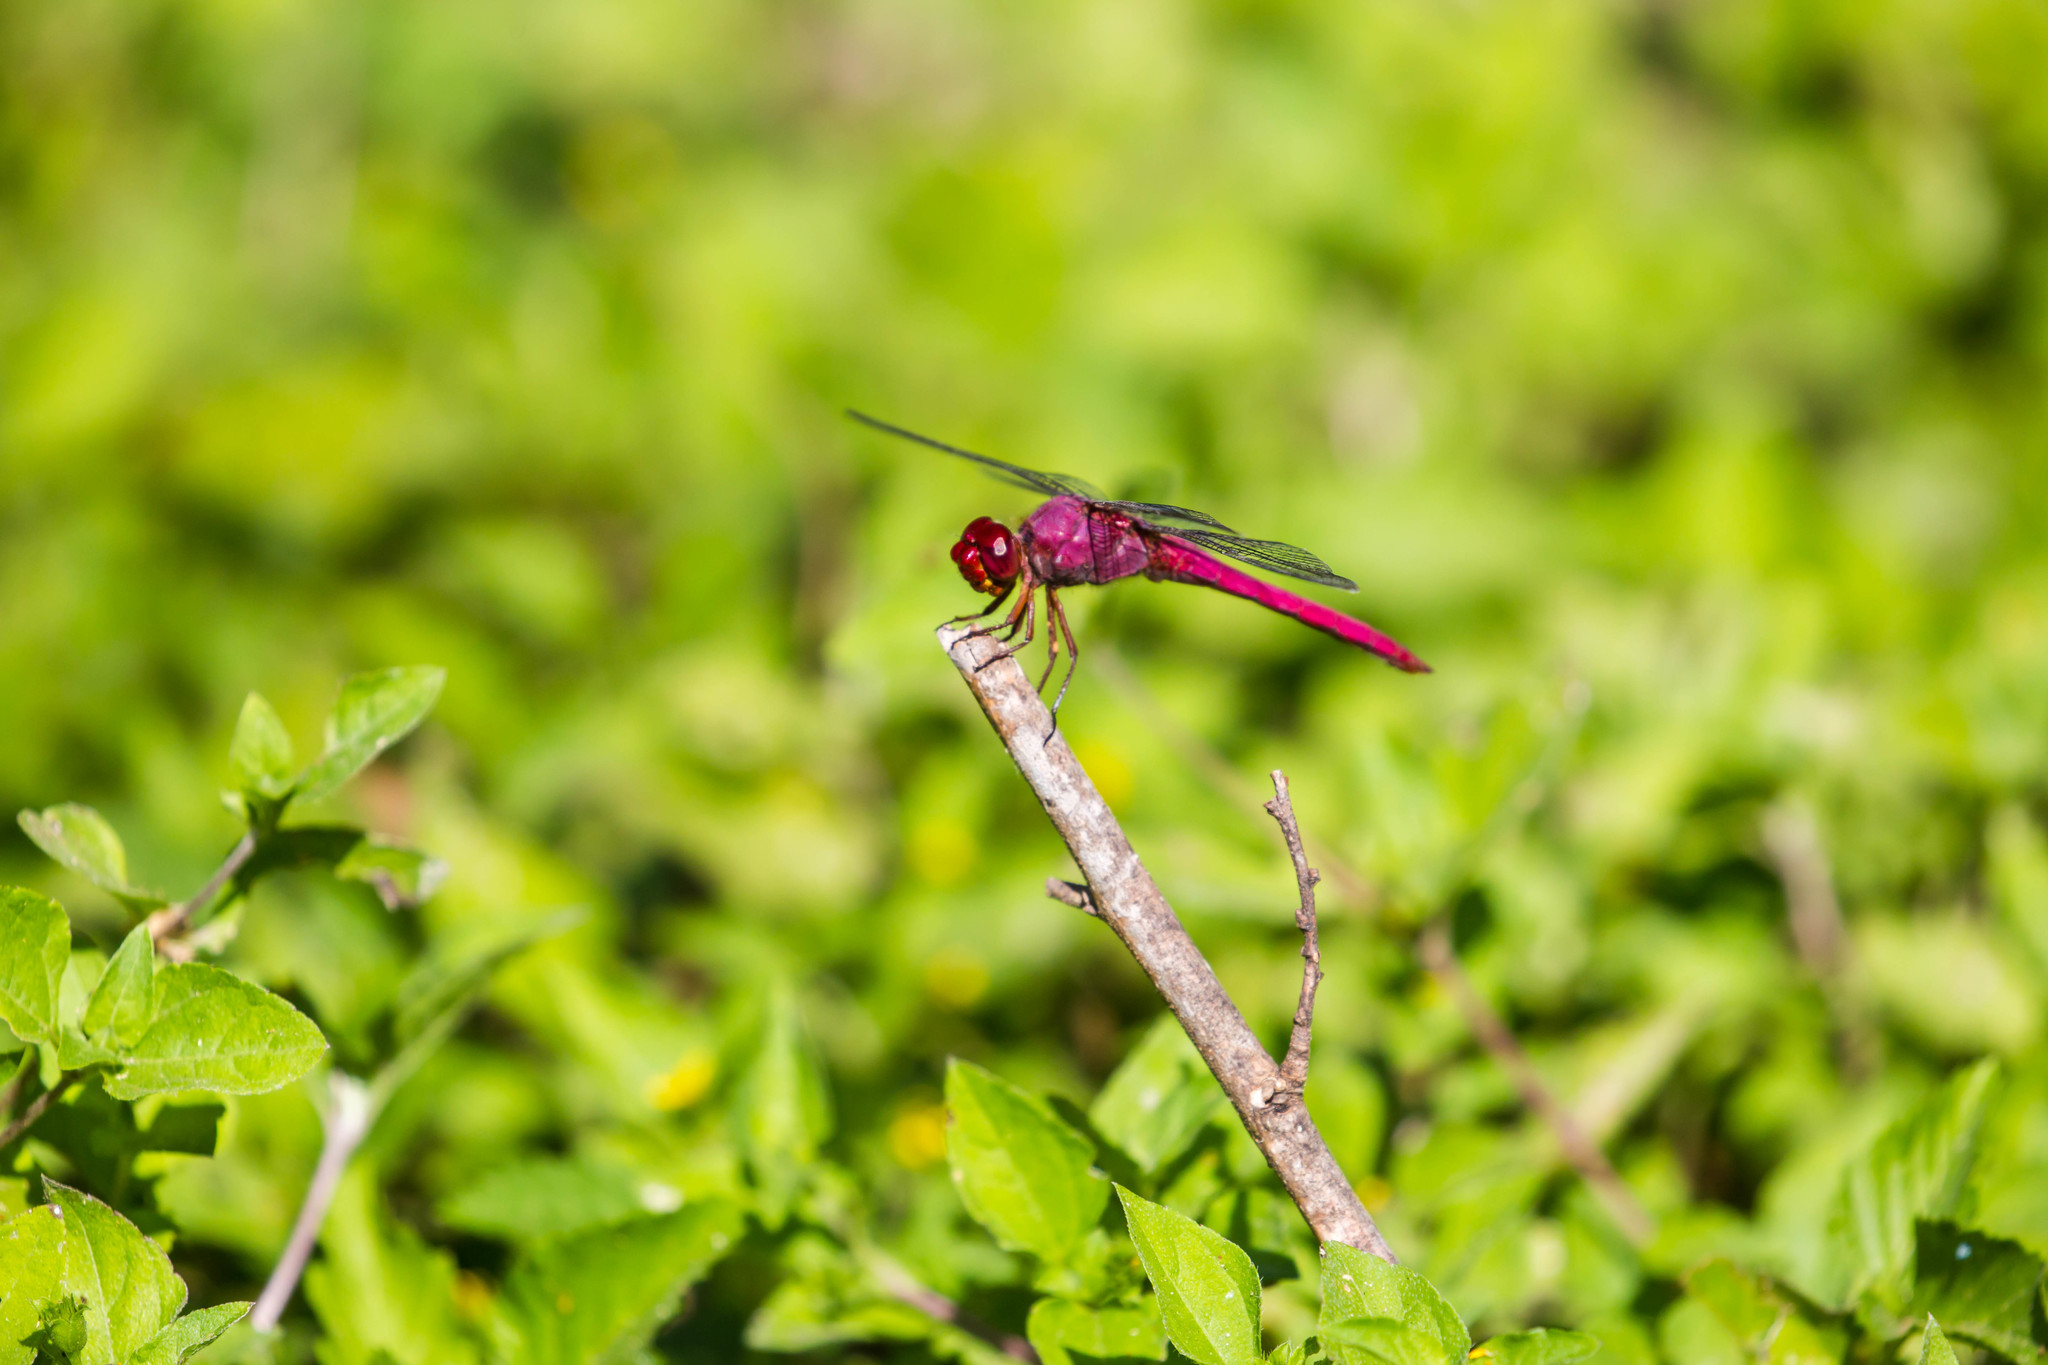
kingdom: Animalia
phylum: Arthropoda
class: Insecta
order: Odonata
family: Libellulidae
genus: Orthemis
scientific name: Orthemis discolor
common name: Carmine skimmer
